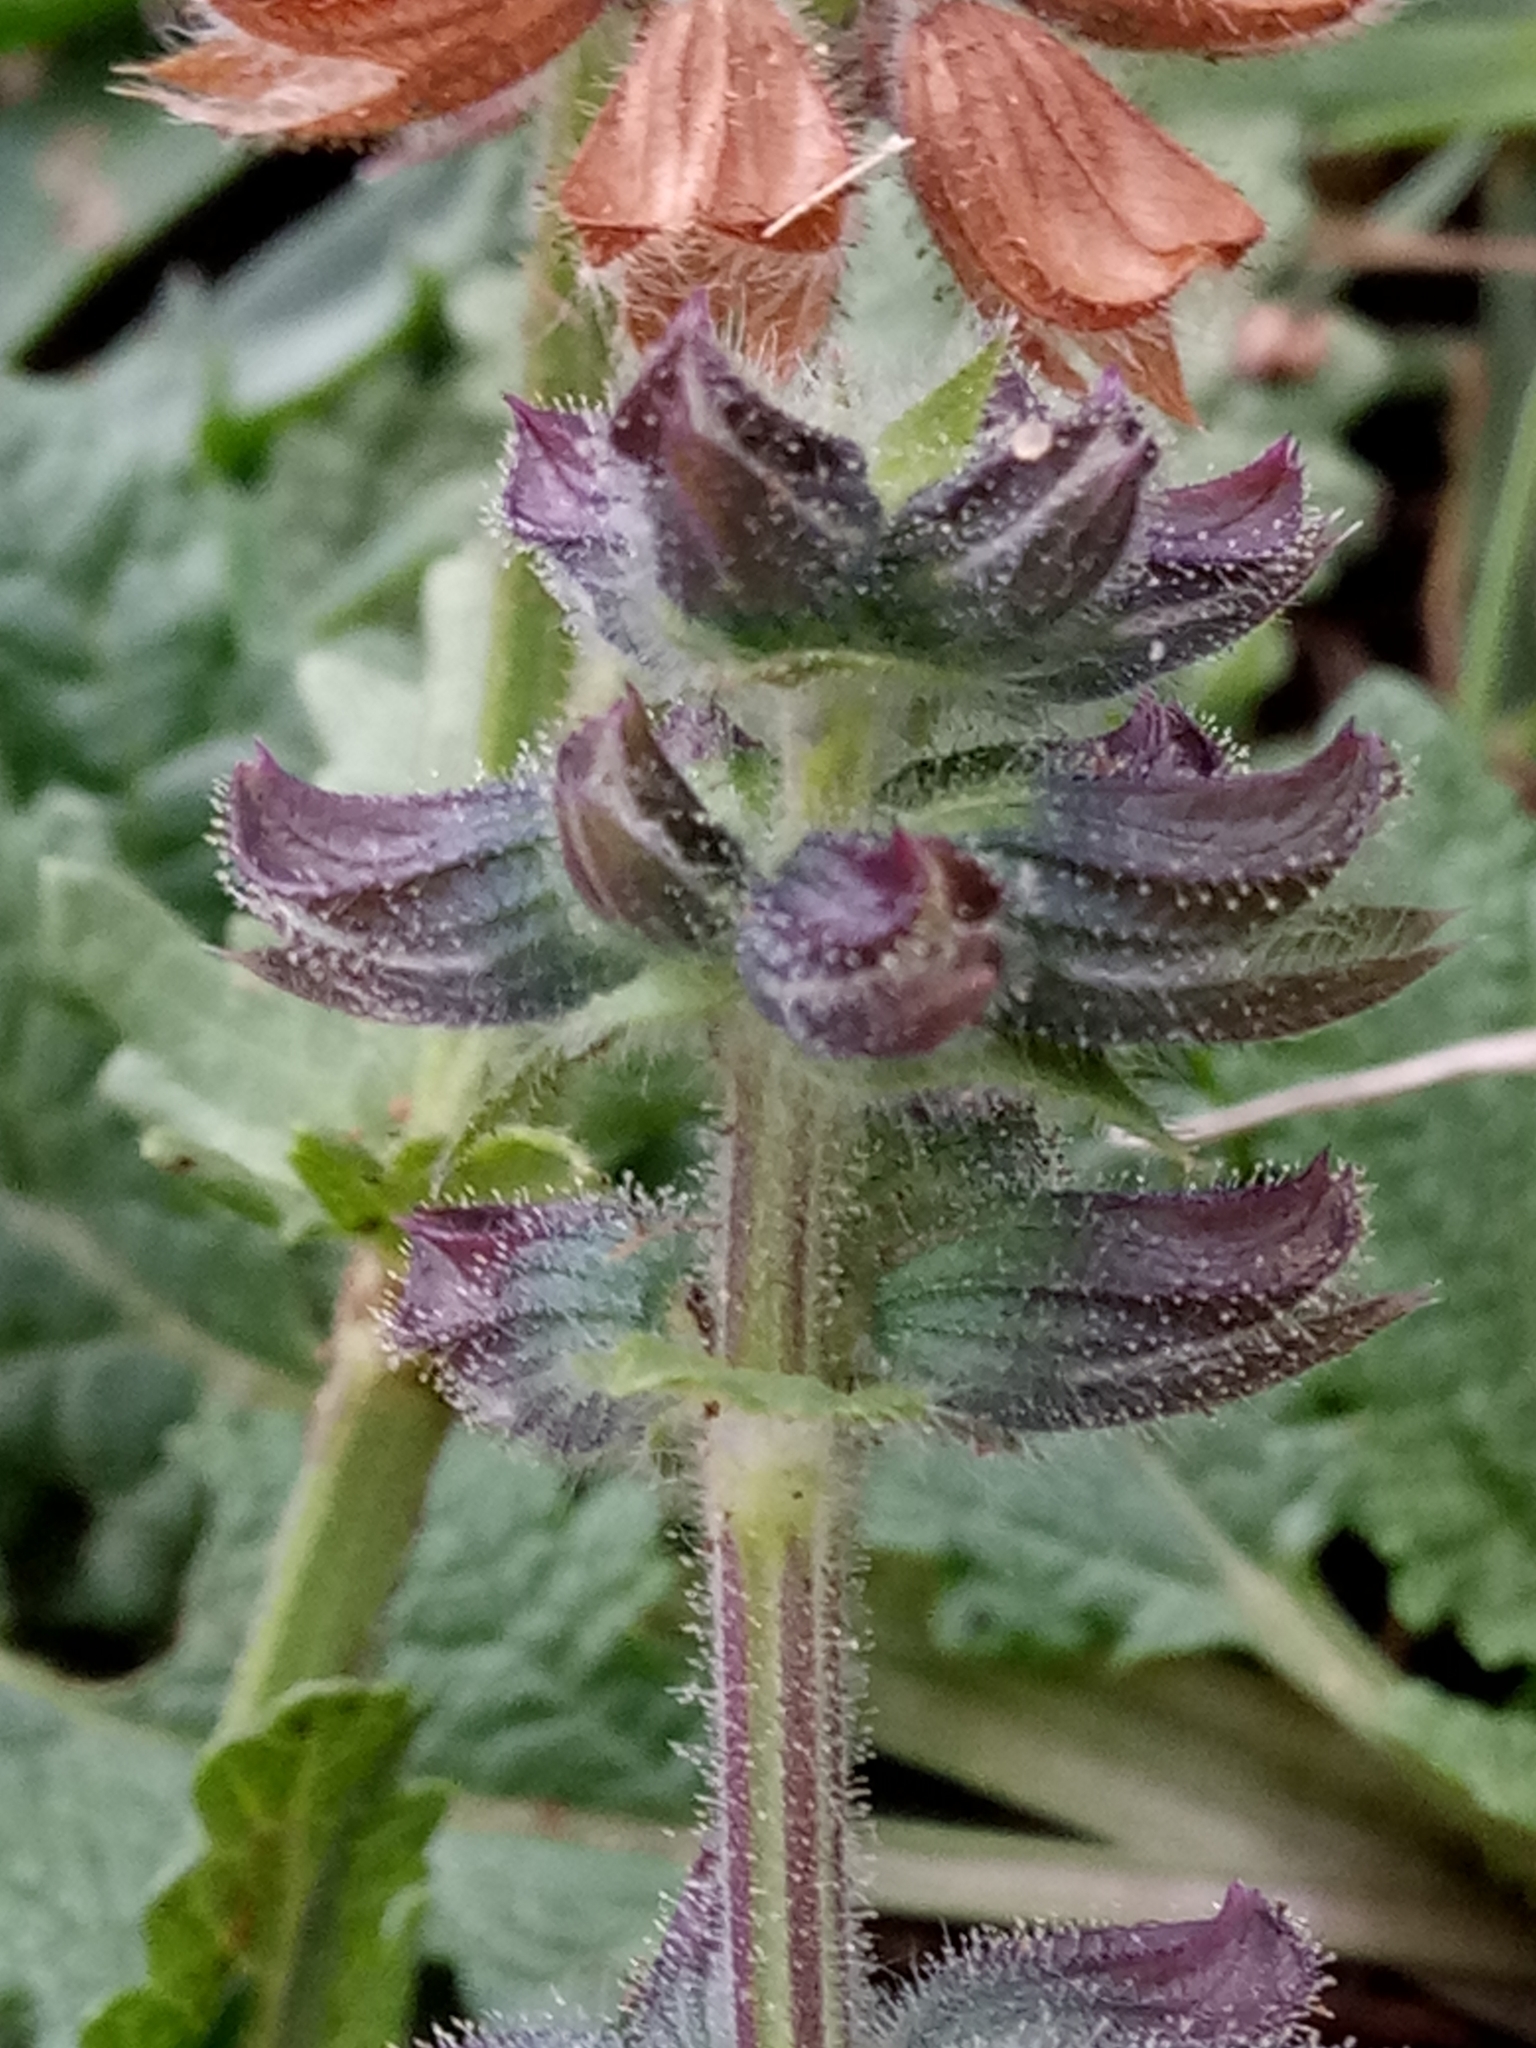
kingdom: Plantae
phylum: Tracheophyta
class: Magnoliopsida
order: Lamiales
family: Lamiaceae
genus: Salvia
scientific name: Salvia verbenaca
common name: Wild clary
